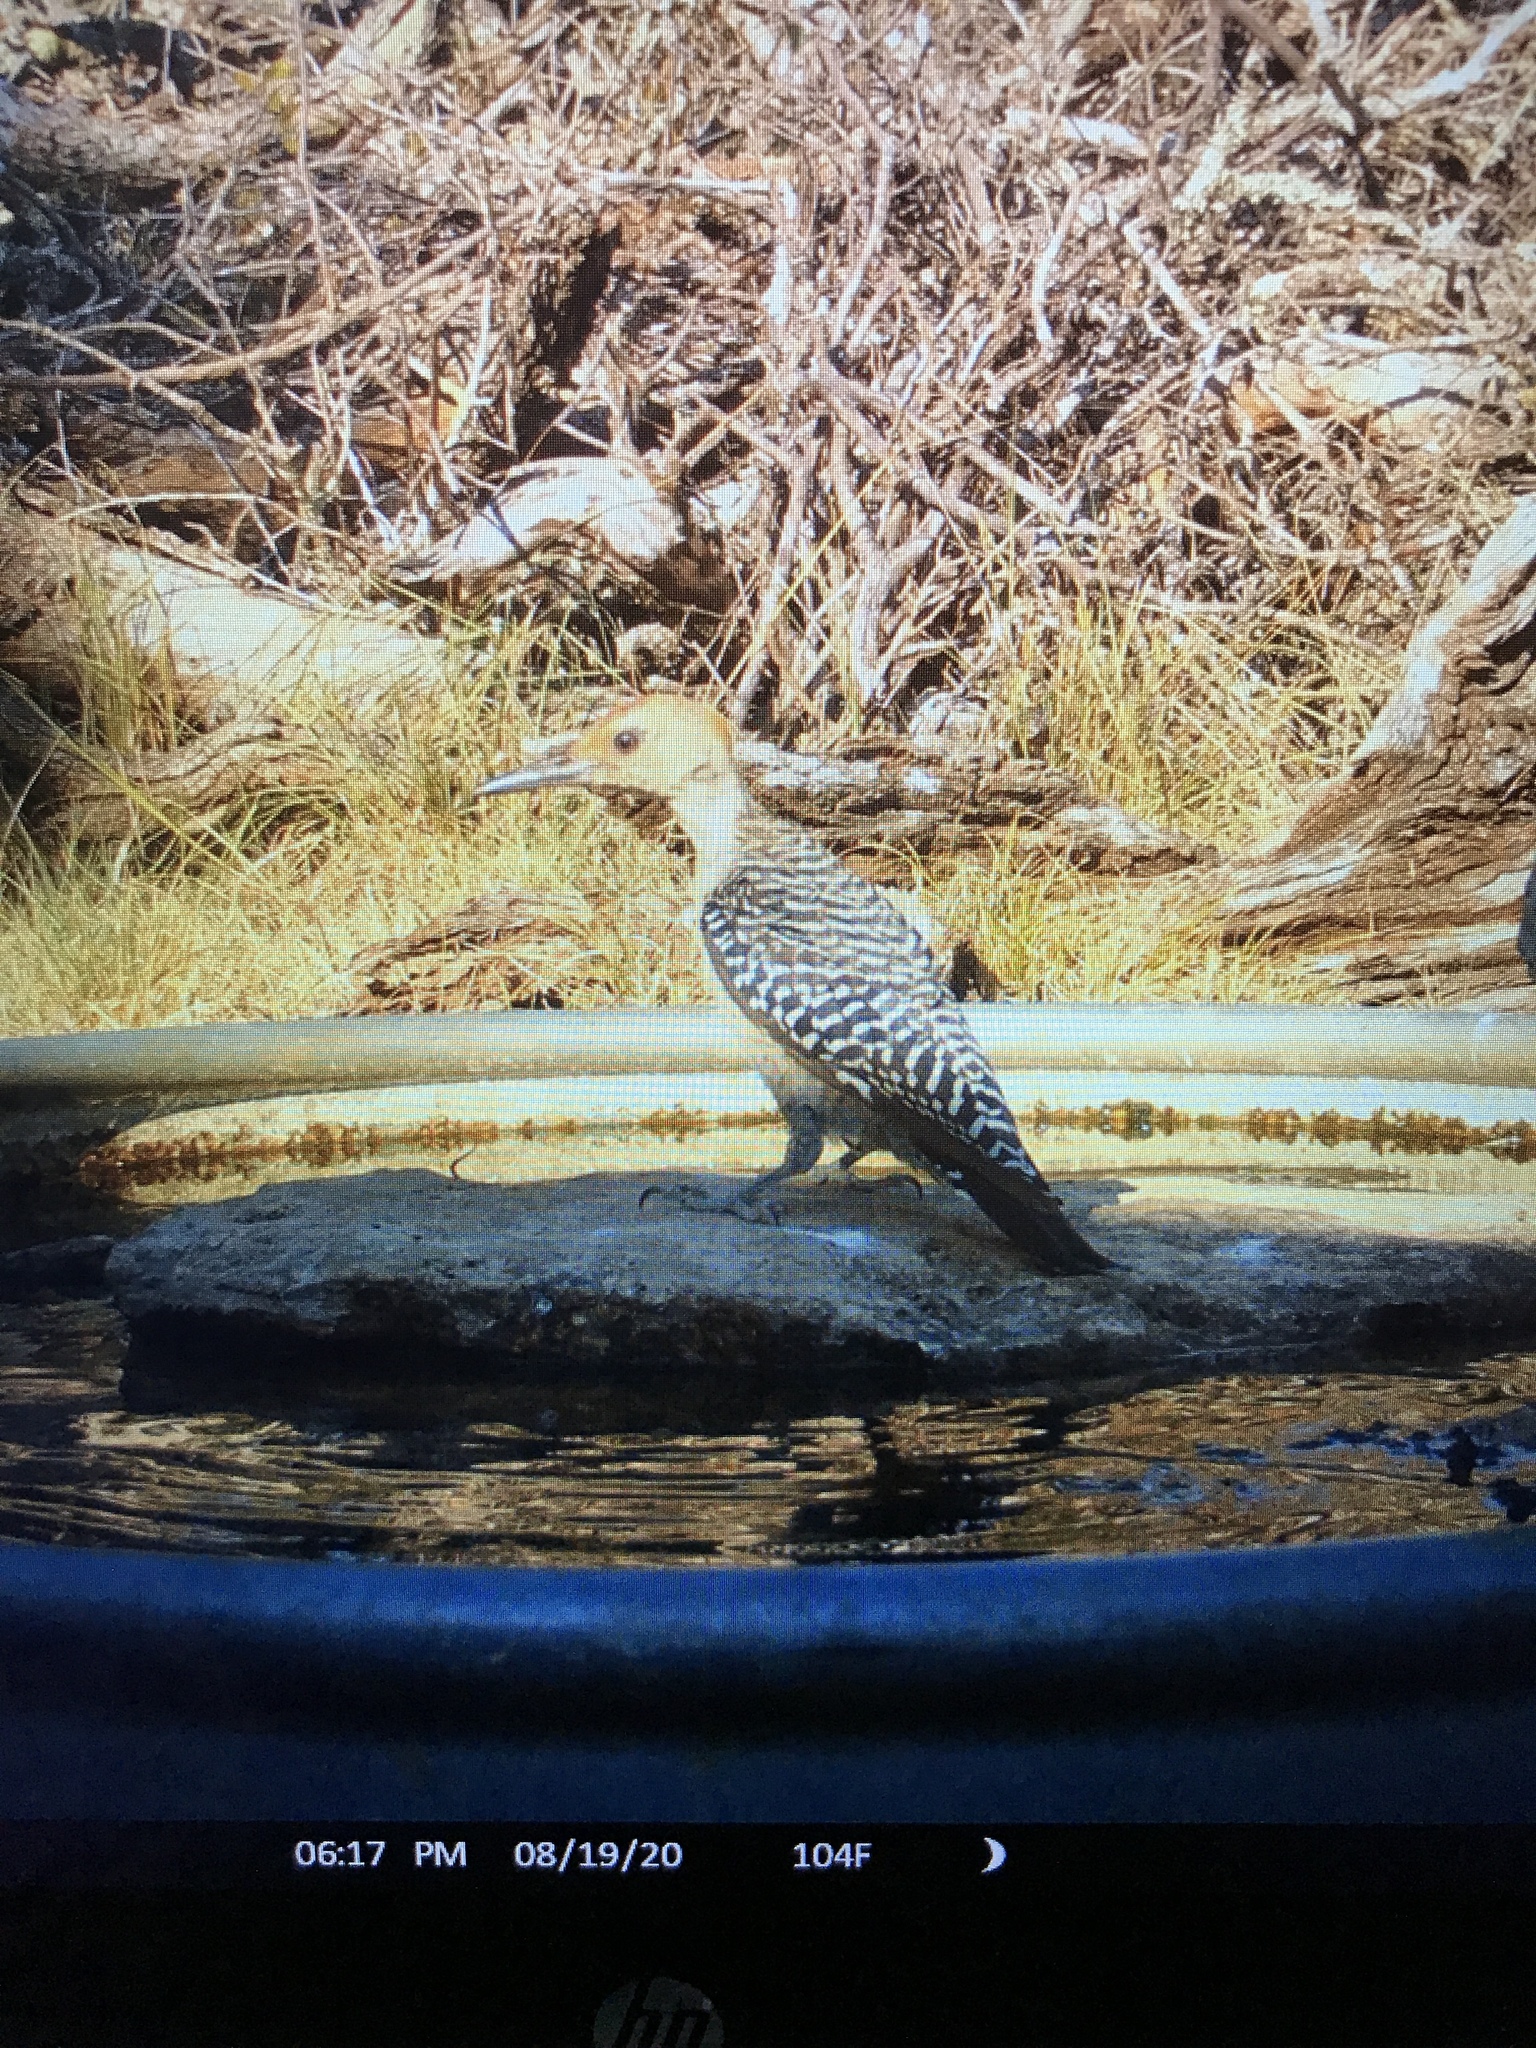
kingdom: Animalia
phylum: Chordata
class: Aves
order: Piciformes
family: Picidae
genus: Melanerpes
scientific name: Melanerpes aurifrons
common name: Golden-fronted woodpecker
